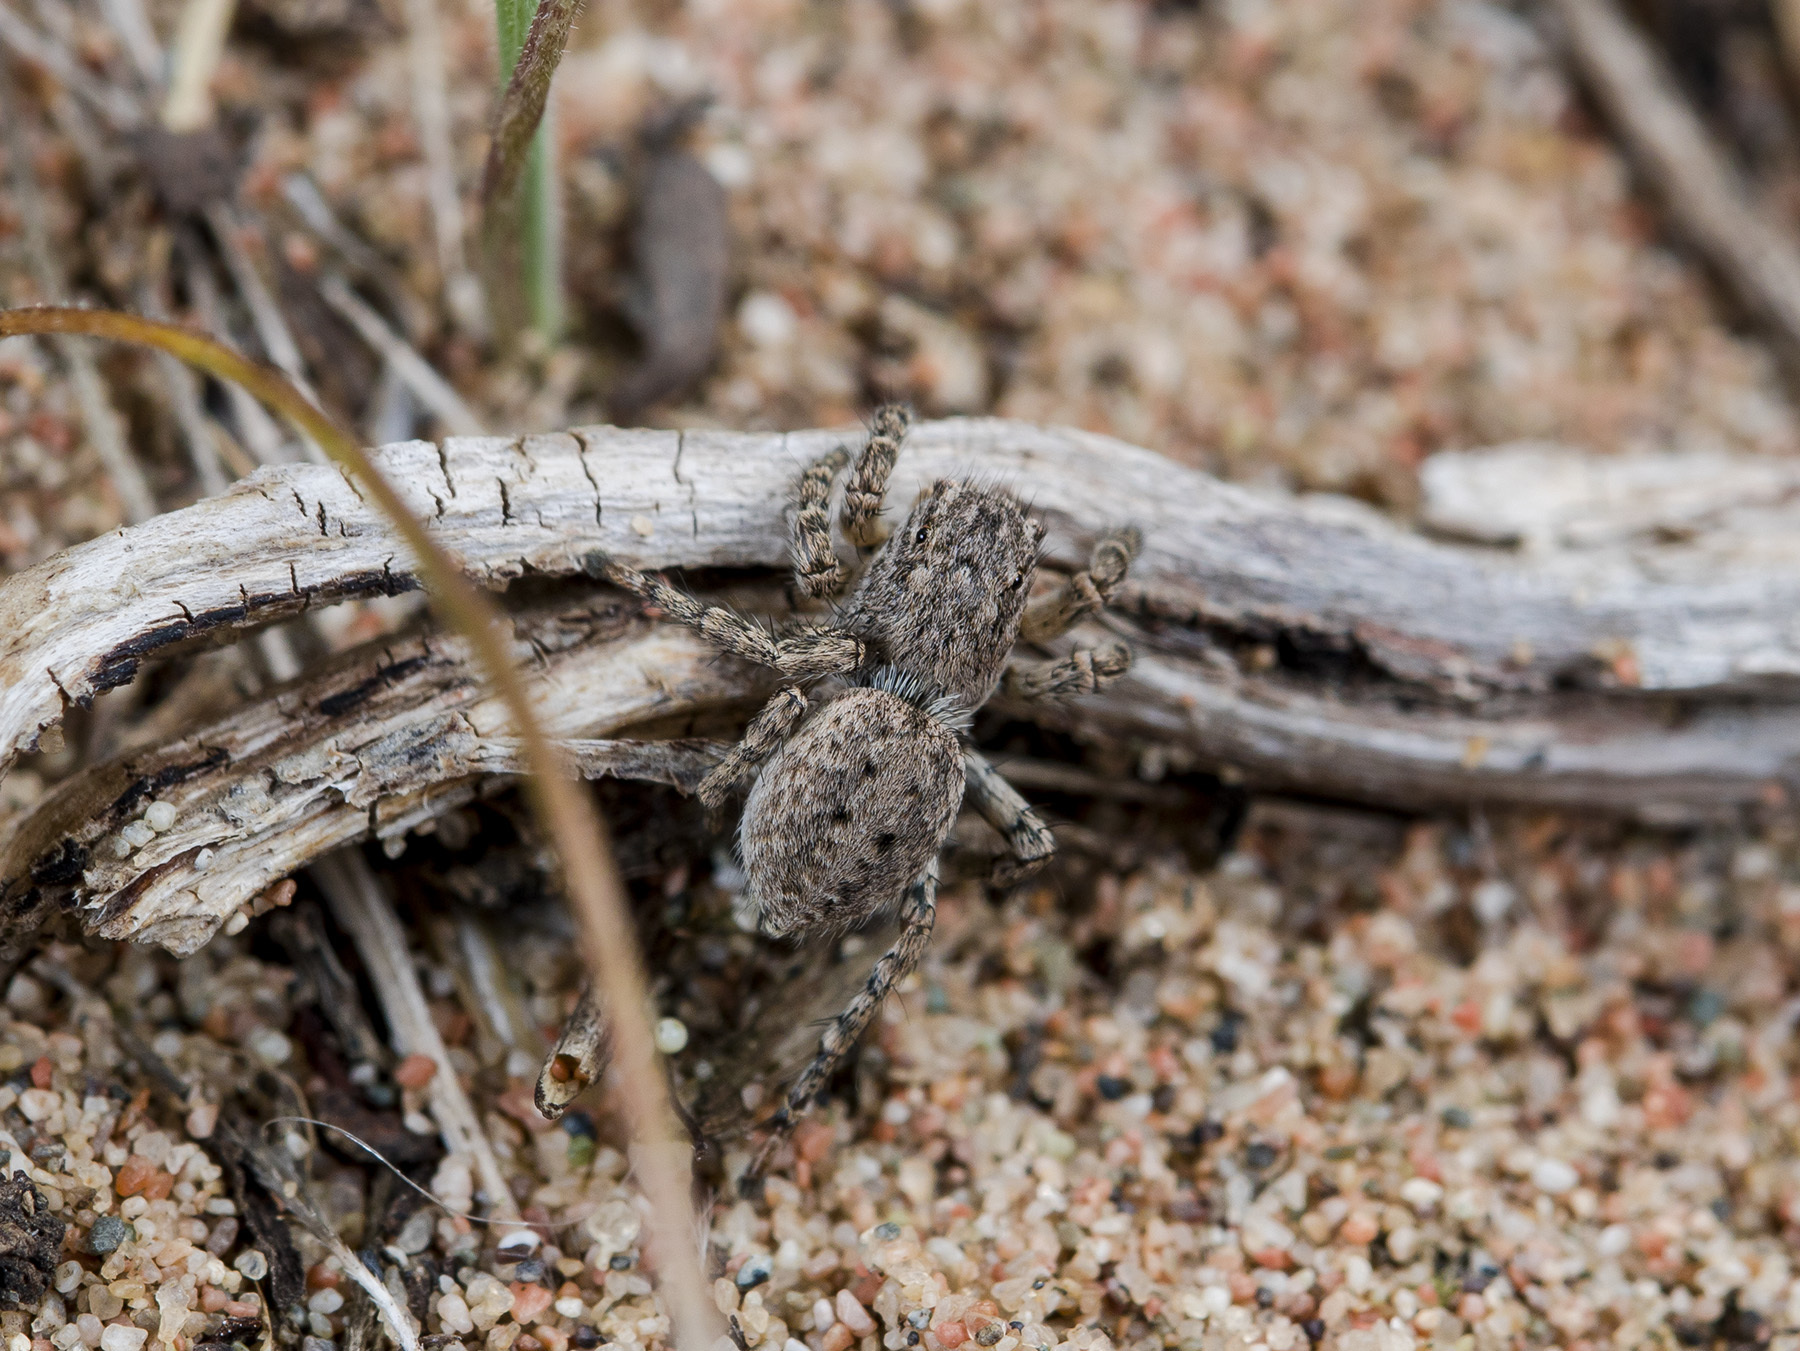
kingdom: Animalia
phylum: Arthropoda
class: Arachnida
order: Araneae
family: Salticidae
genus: Aelurillus
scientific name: Aelurillus v-insignitus
